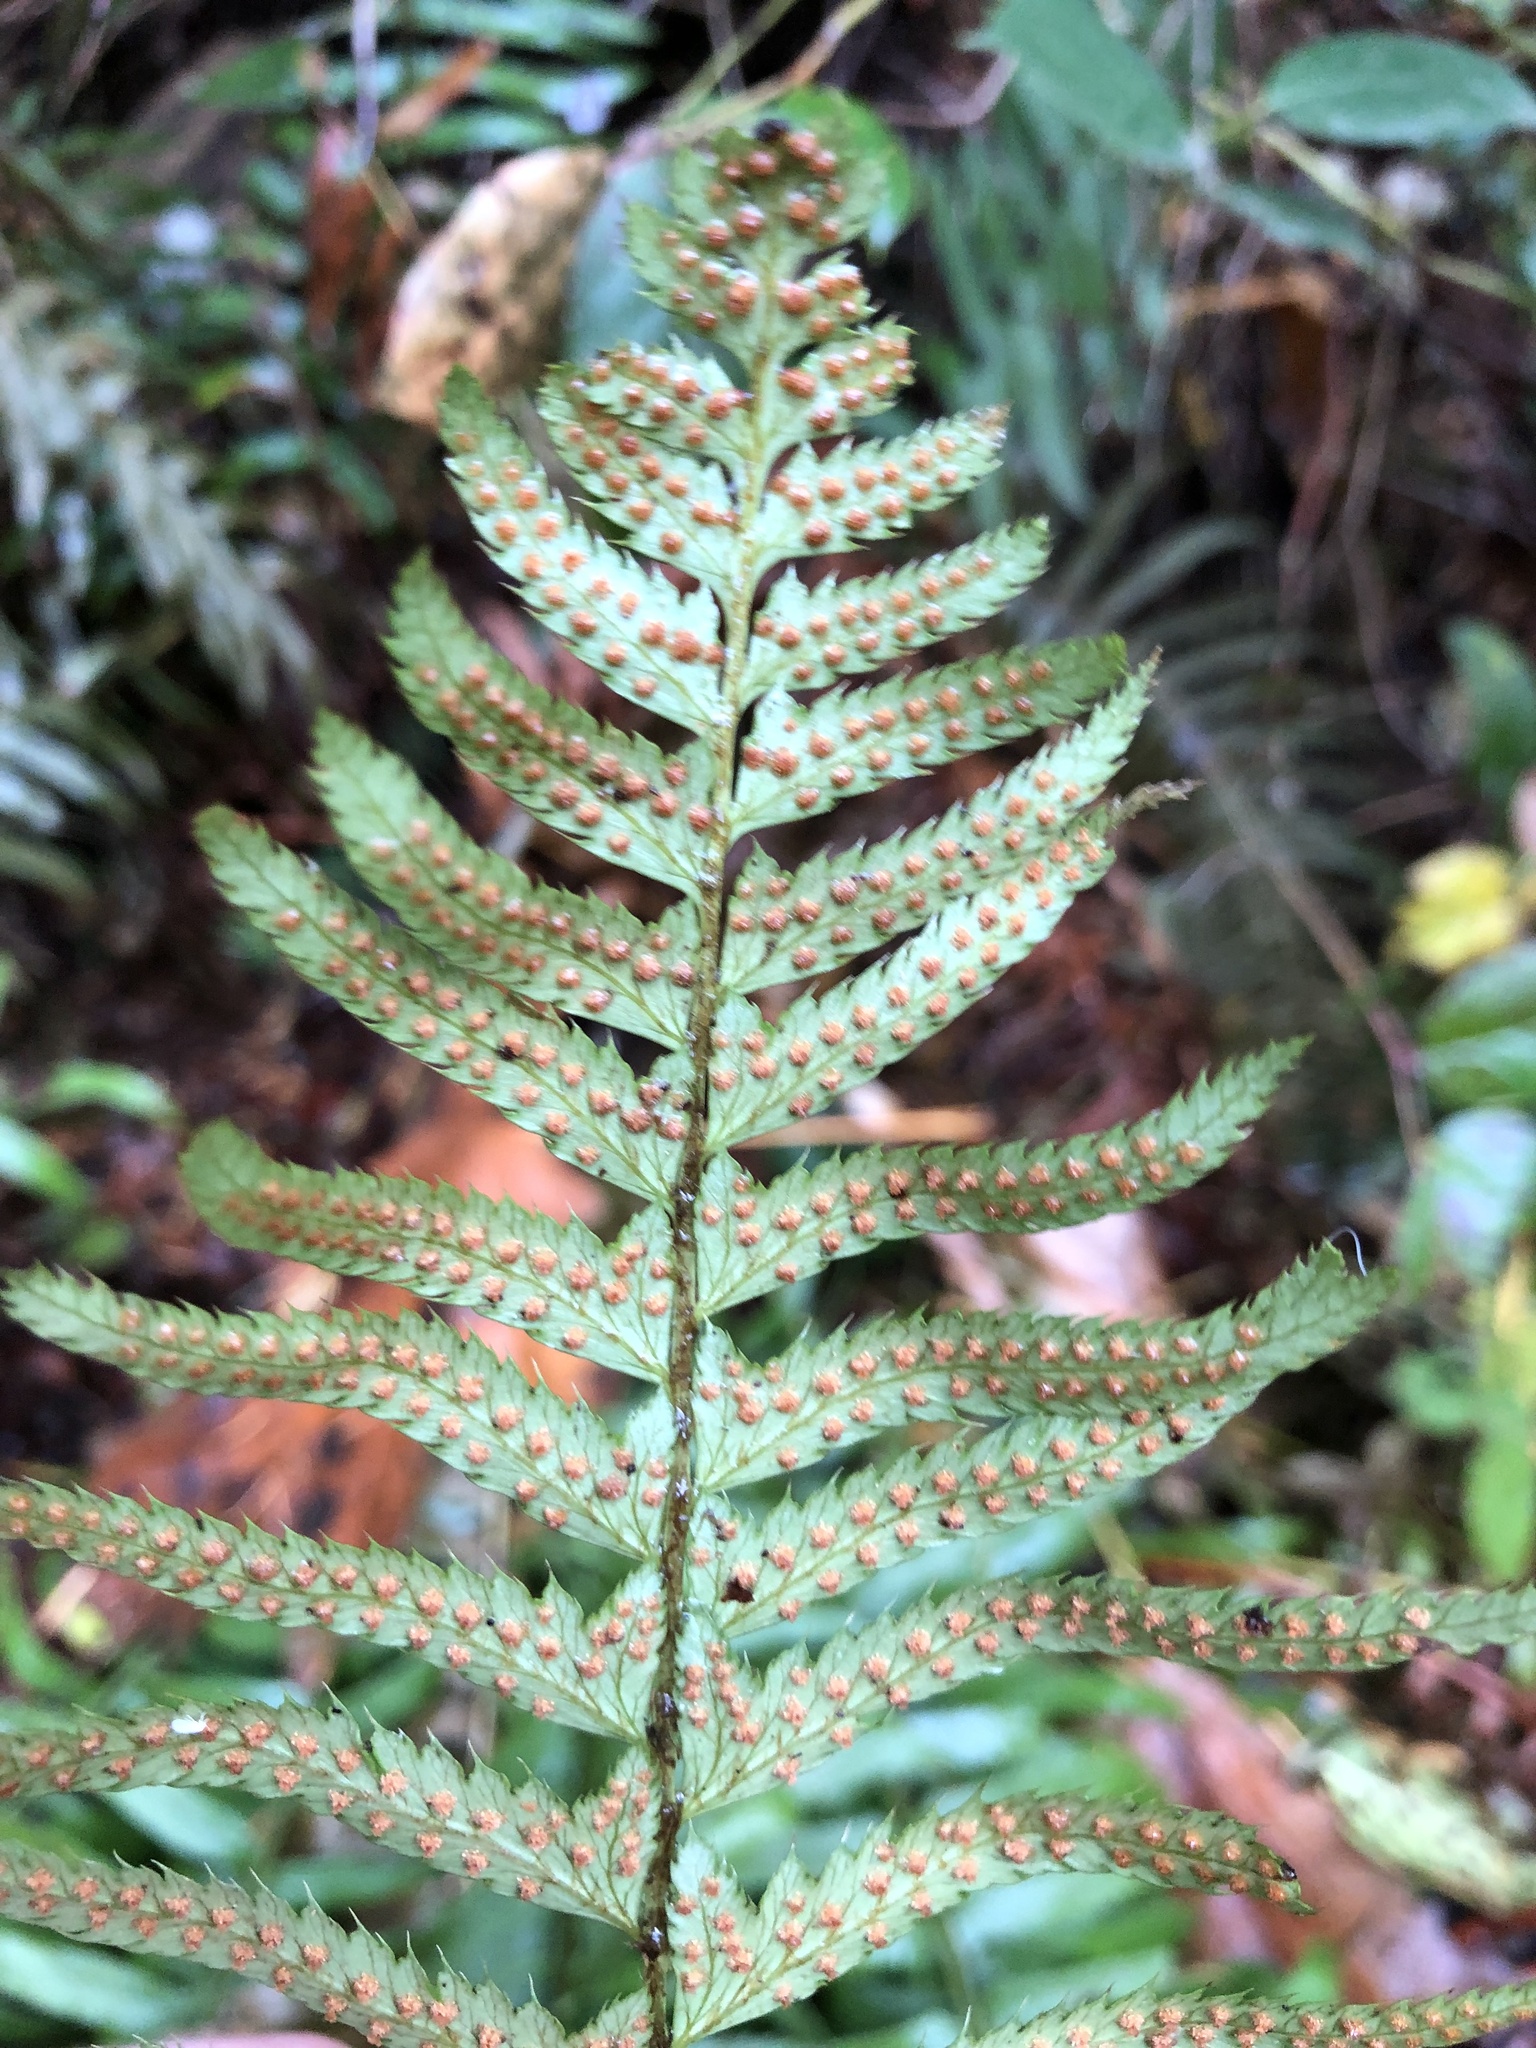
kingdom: Plantae
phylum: Tracheophyta
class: Polypodiopsida
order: Polypodiales
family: Dryopteridaceae
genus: Polystichum
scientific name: Polystichum munitum
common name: Western sword-fern
